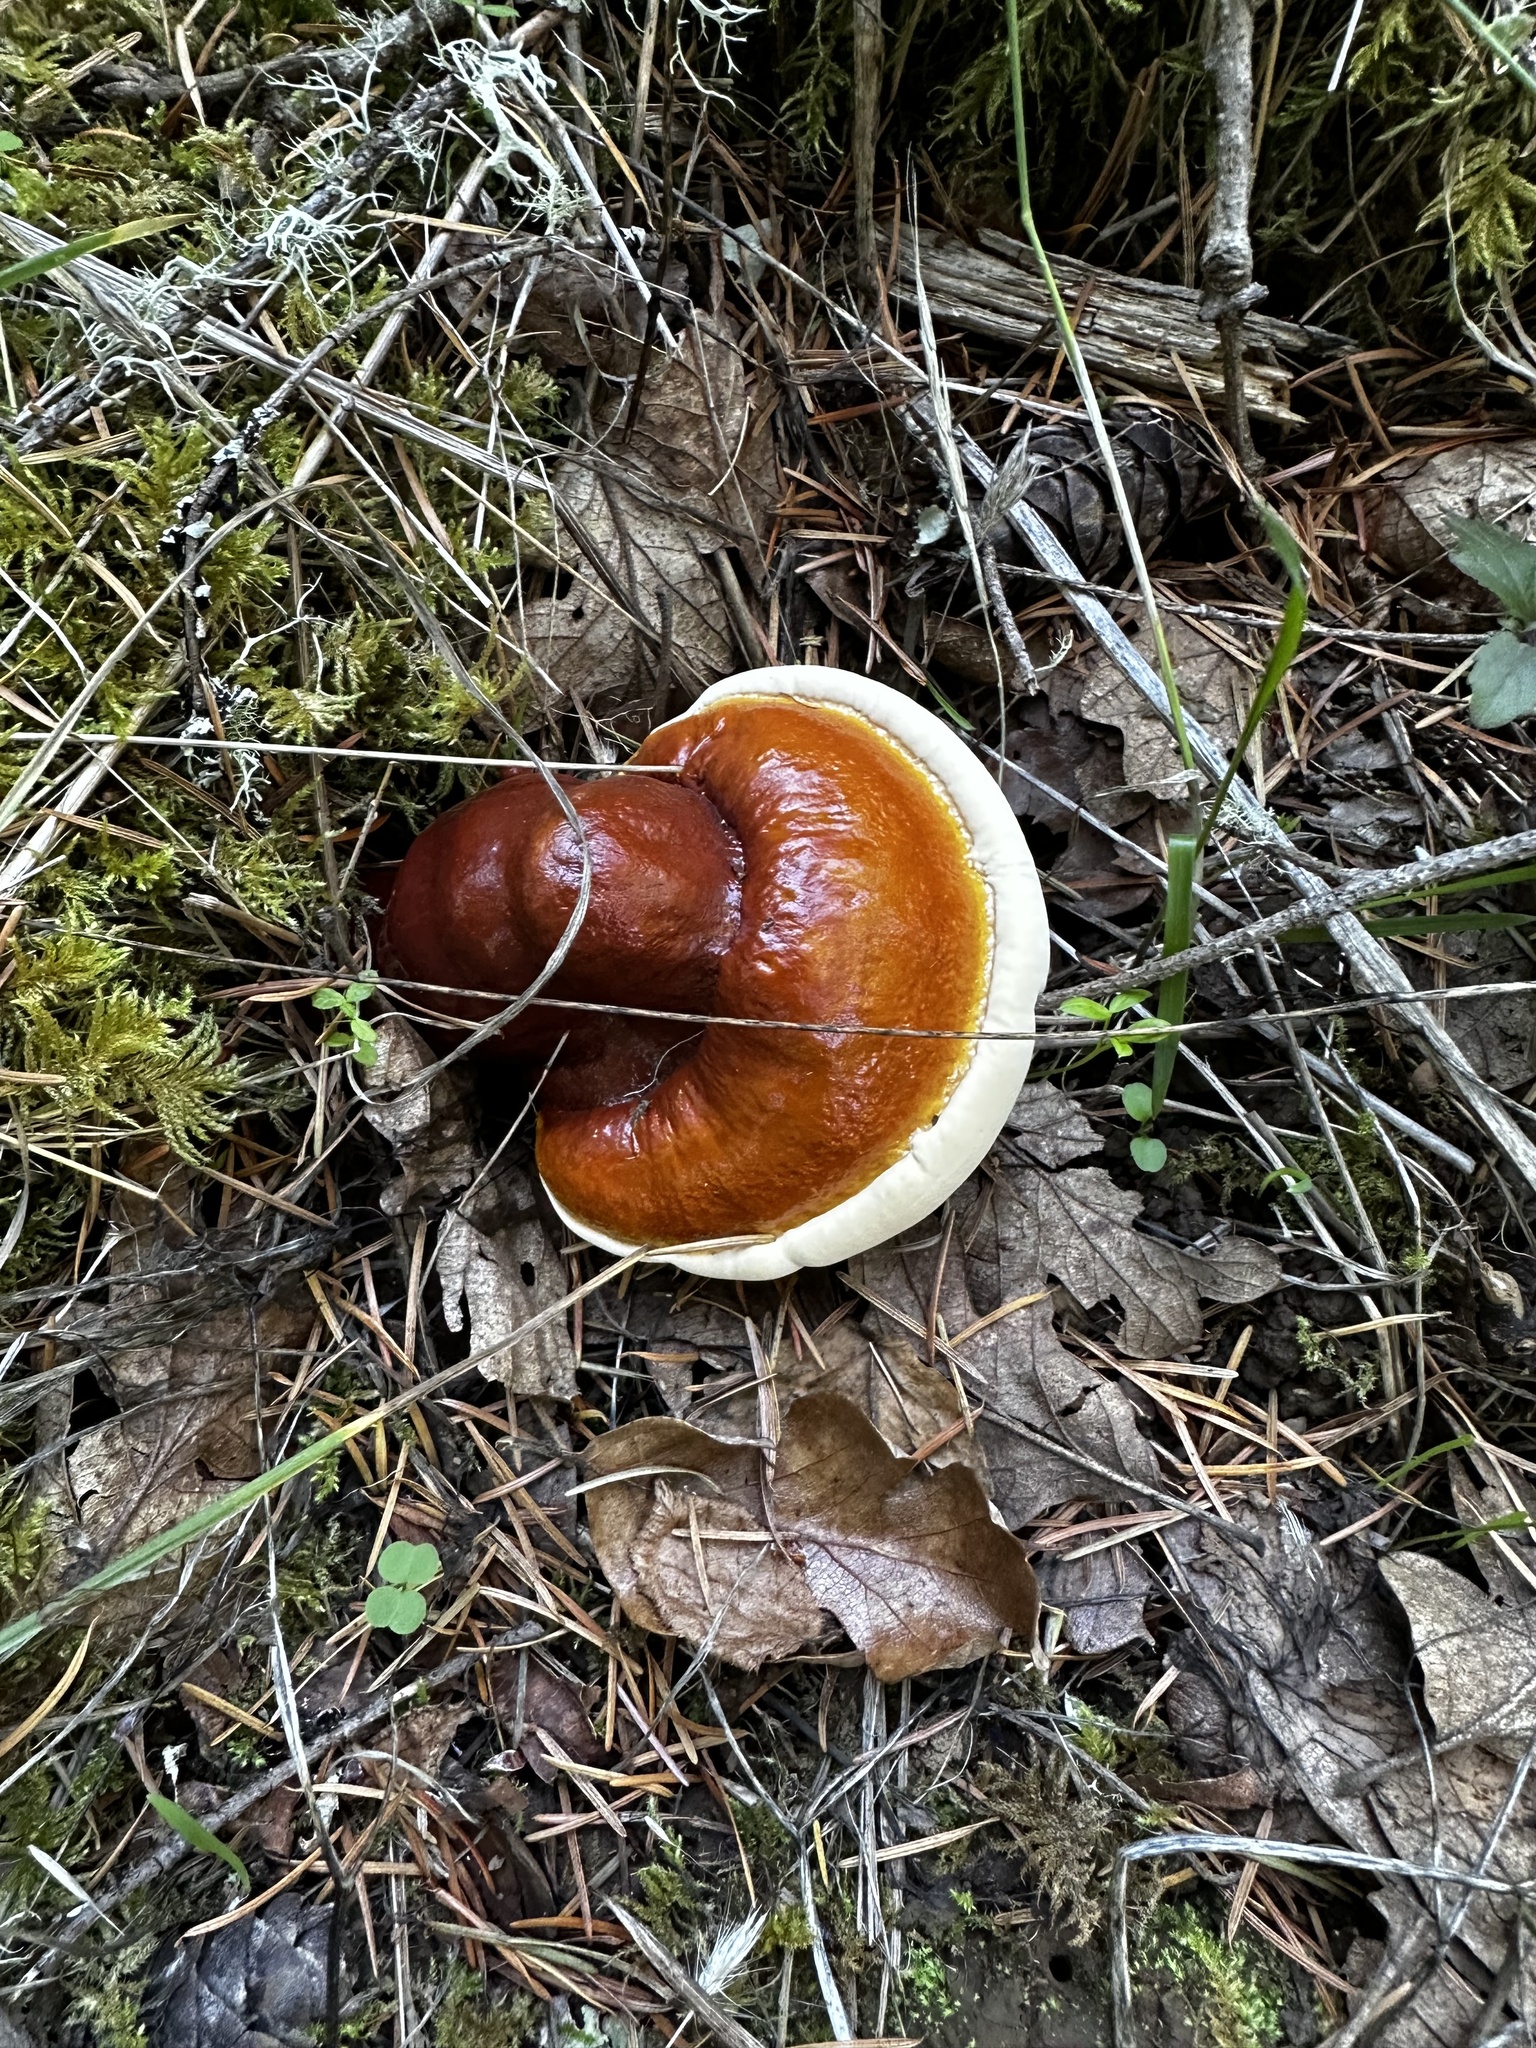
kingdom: Fungi
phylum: Basidiomycota
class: Agaricomycetes
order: Polyporales
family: Polyporaceae
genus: Ganoderma
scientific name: Ganoderma tsugae
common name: Hemlock varnish shelf
